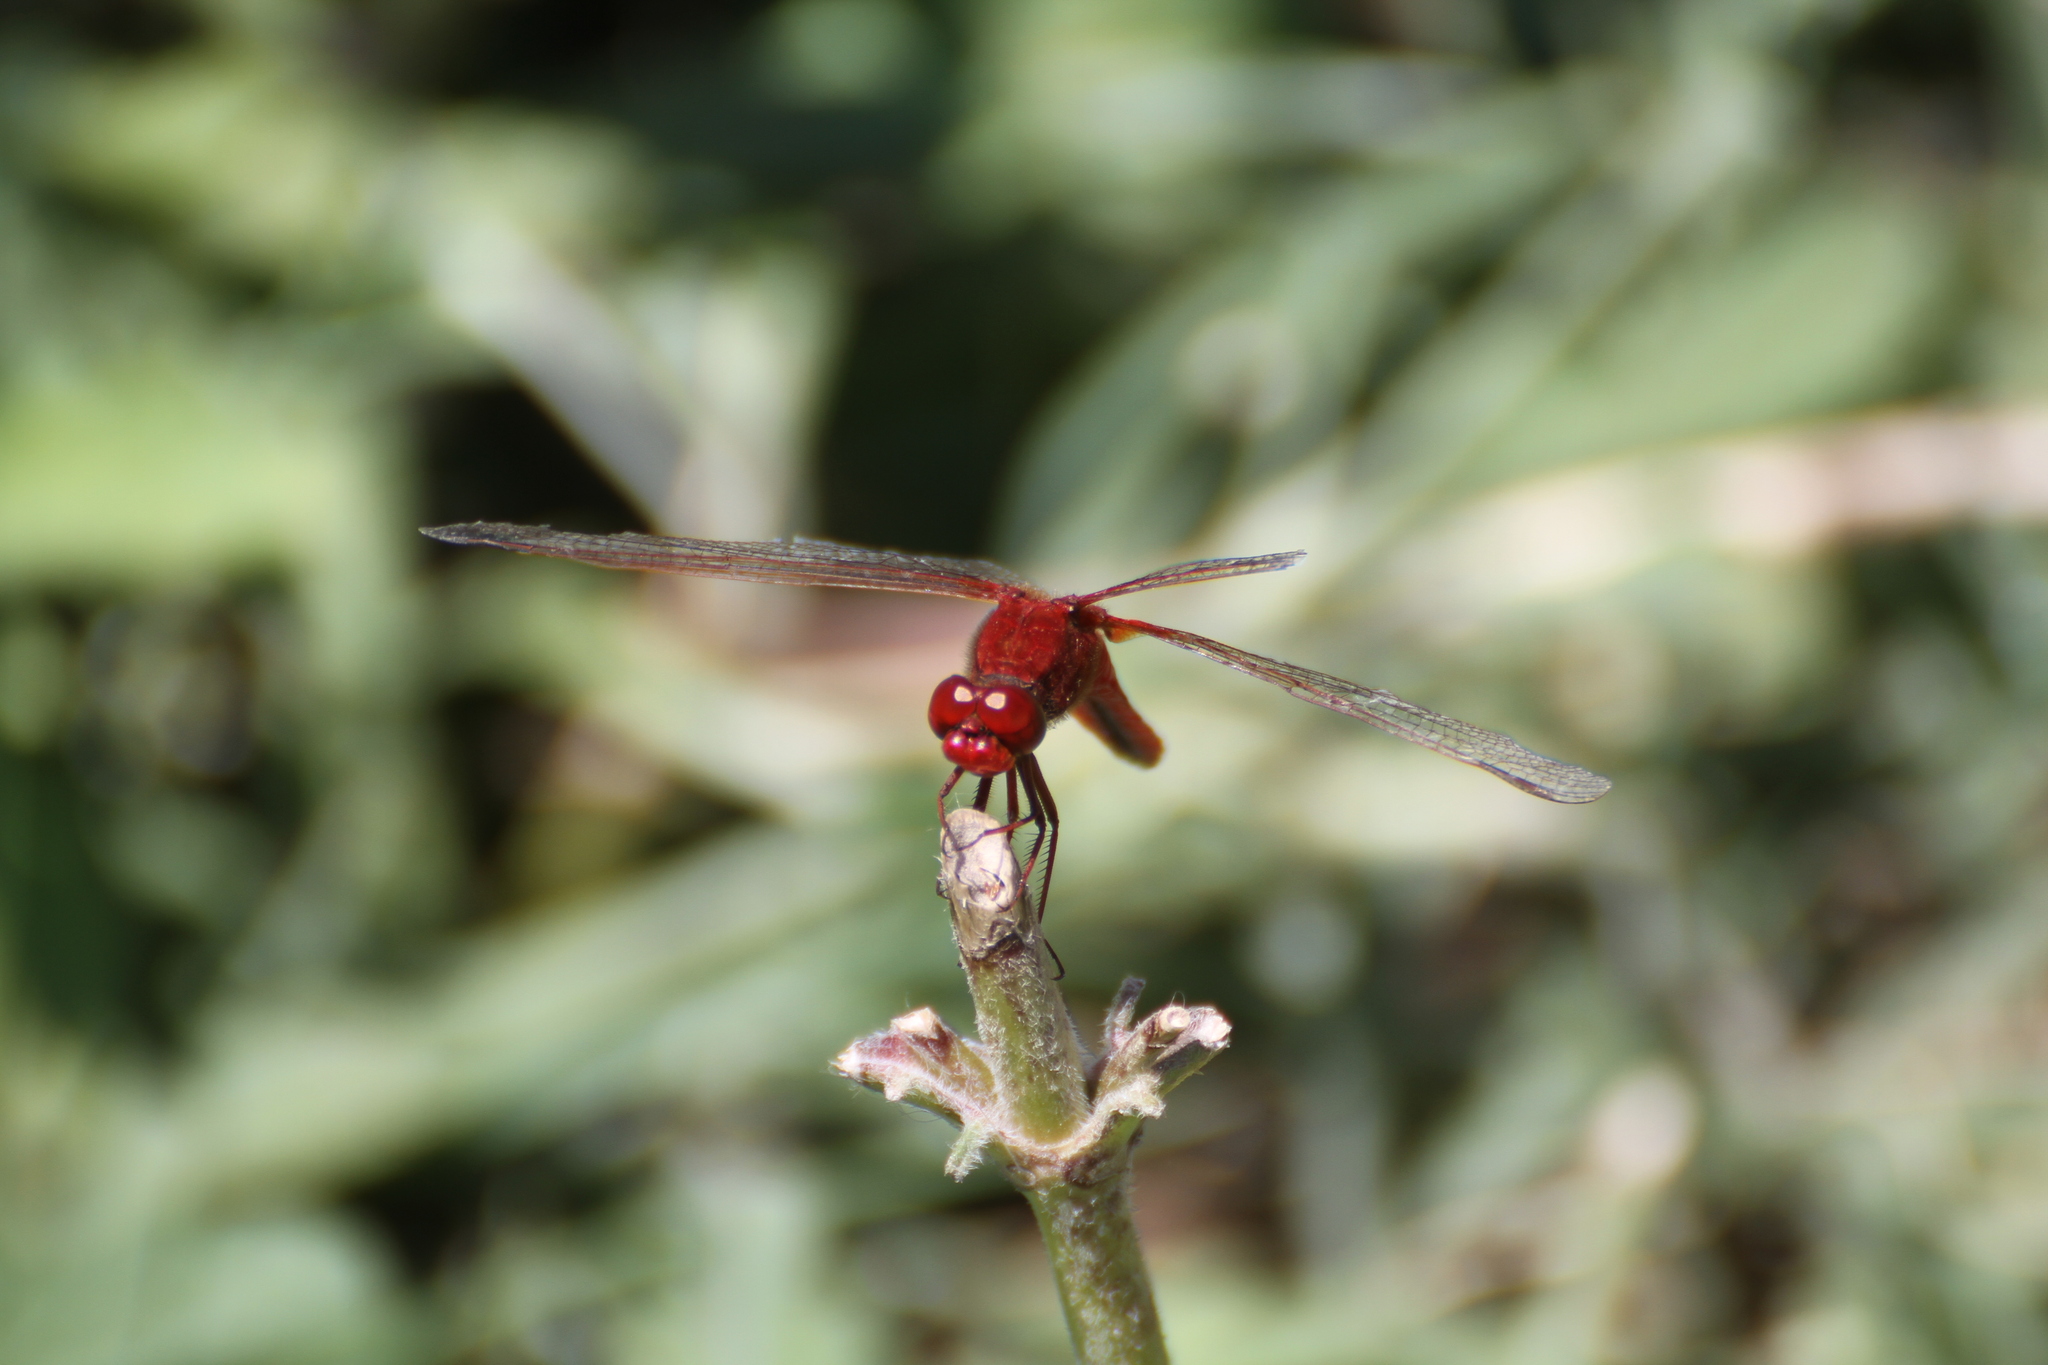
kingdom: Animalia
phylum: Arthropoda
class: Insecta
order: Odonata
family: Libellulidae
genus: Crocothemis
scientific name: Crocothemis erythraea
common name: Scarlet dragonfly
